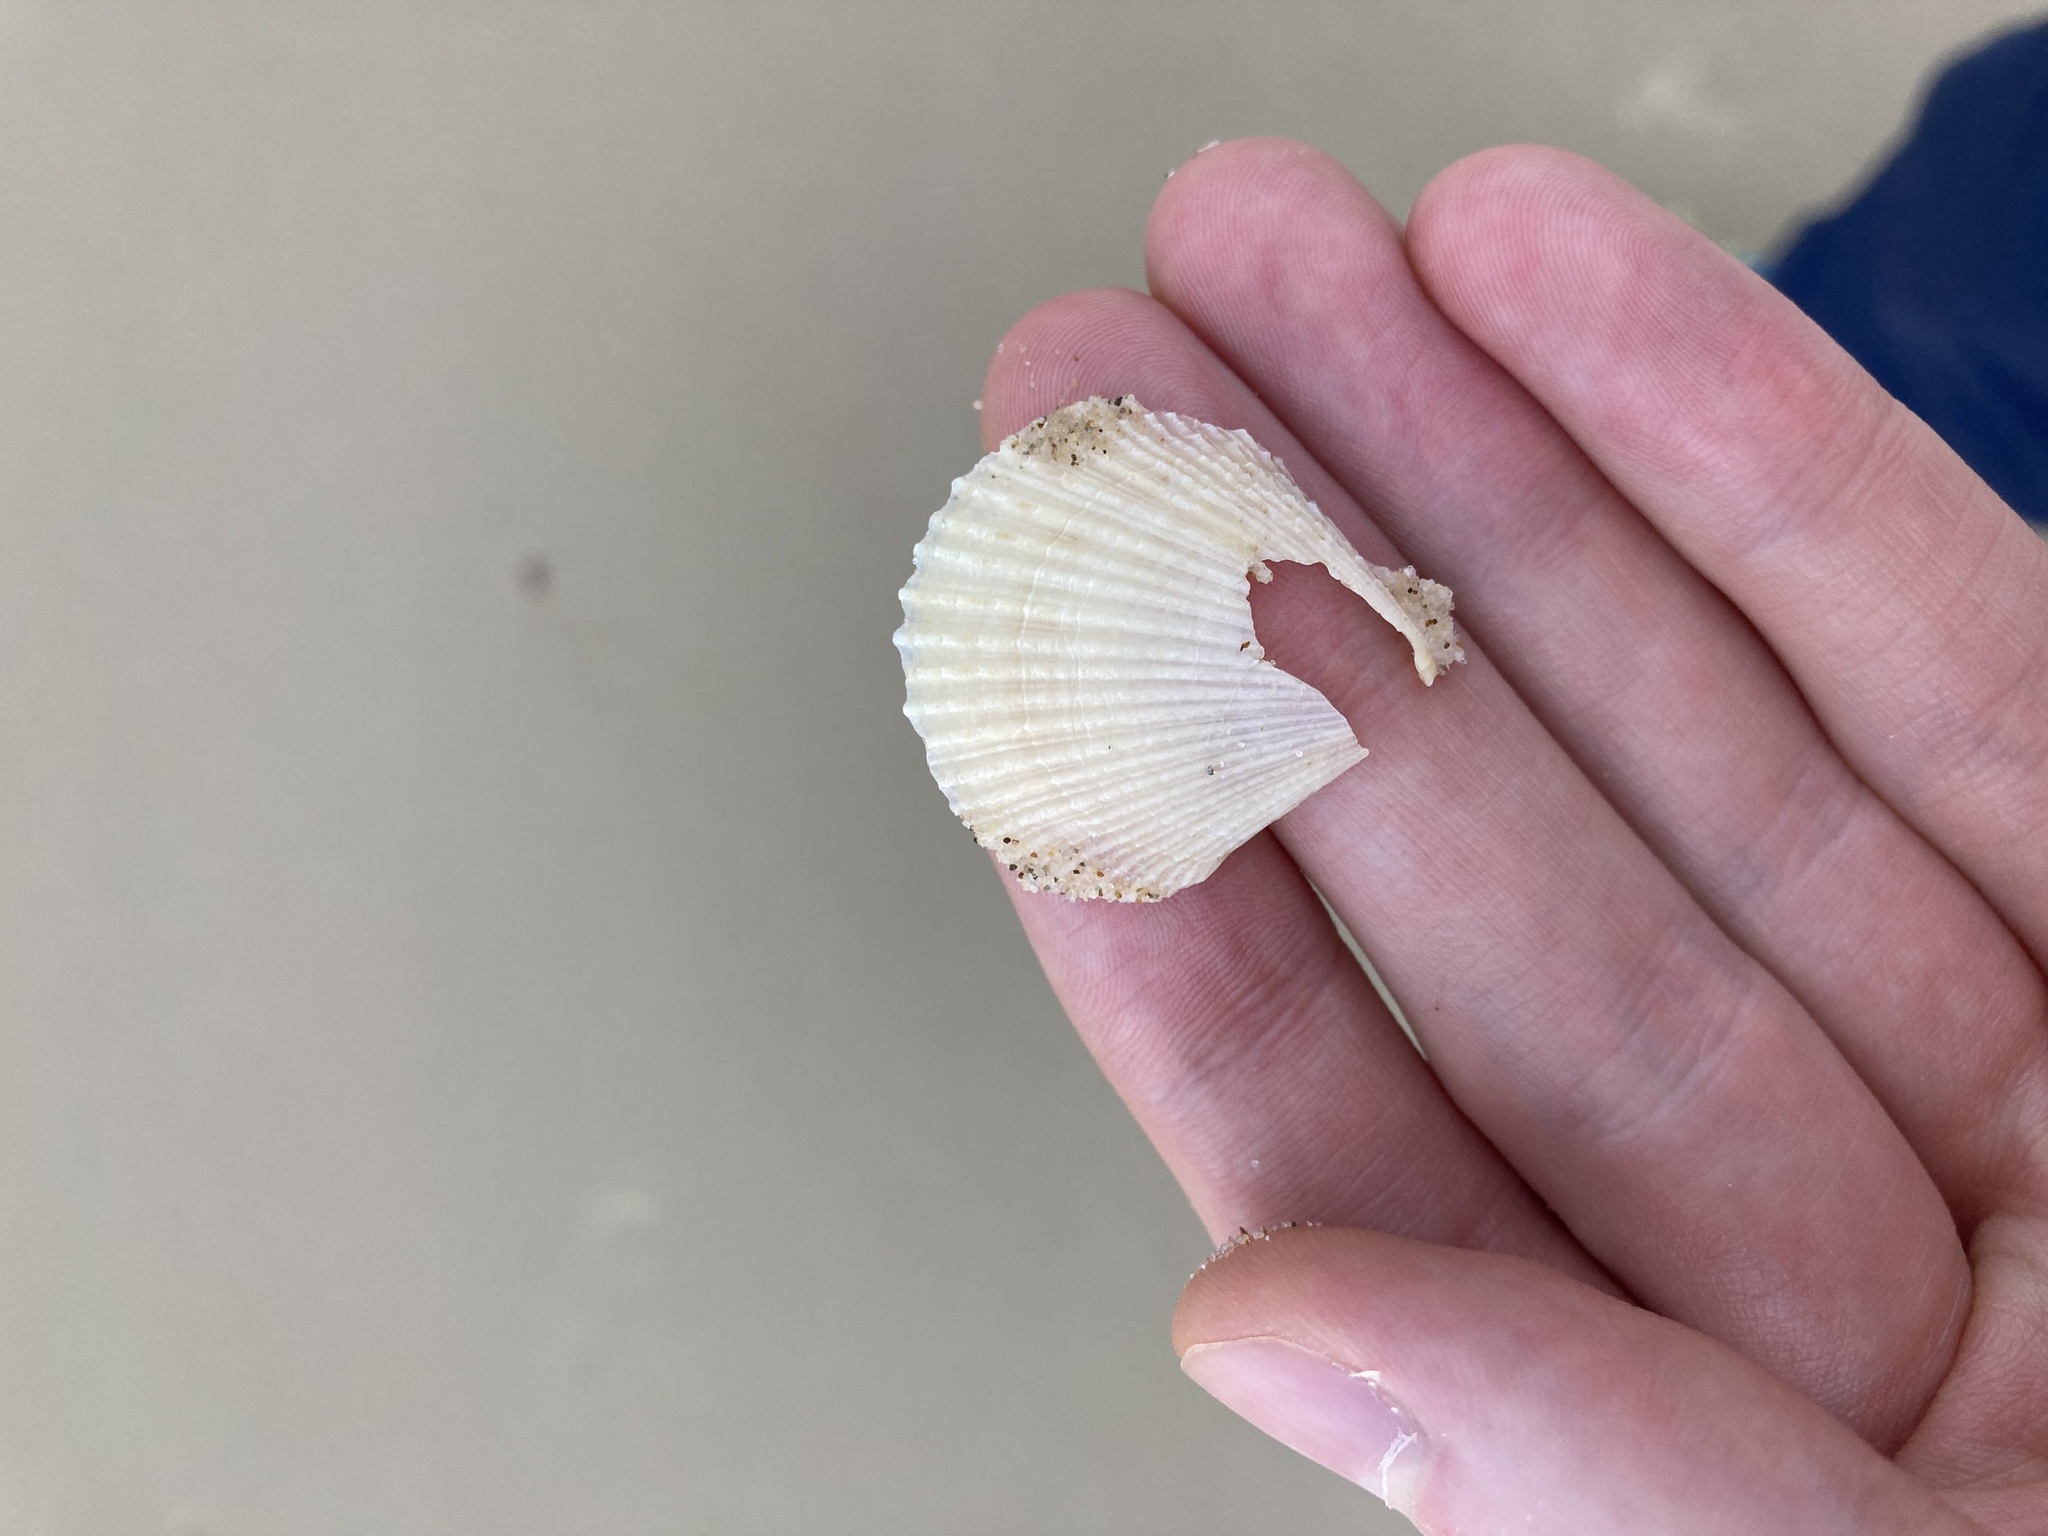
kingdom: Animalia
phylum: Mollusca
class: Bivalvia
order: Pectinida
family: Pectinidae
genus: Scaeochlamys
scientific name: Scaeochlamys livida
